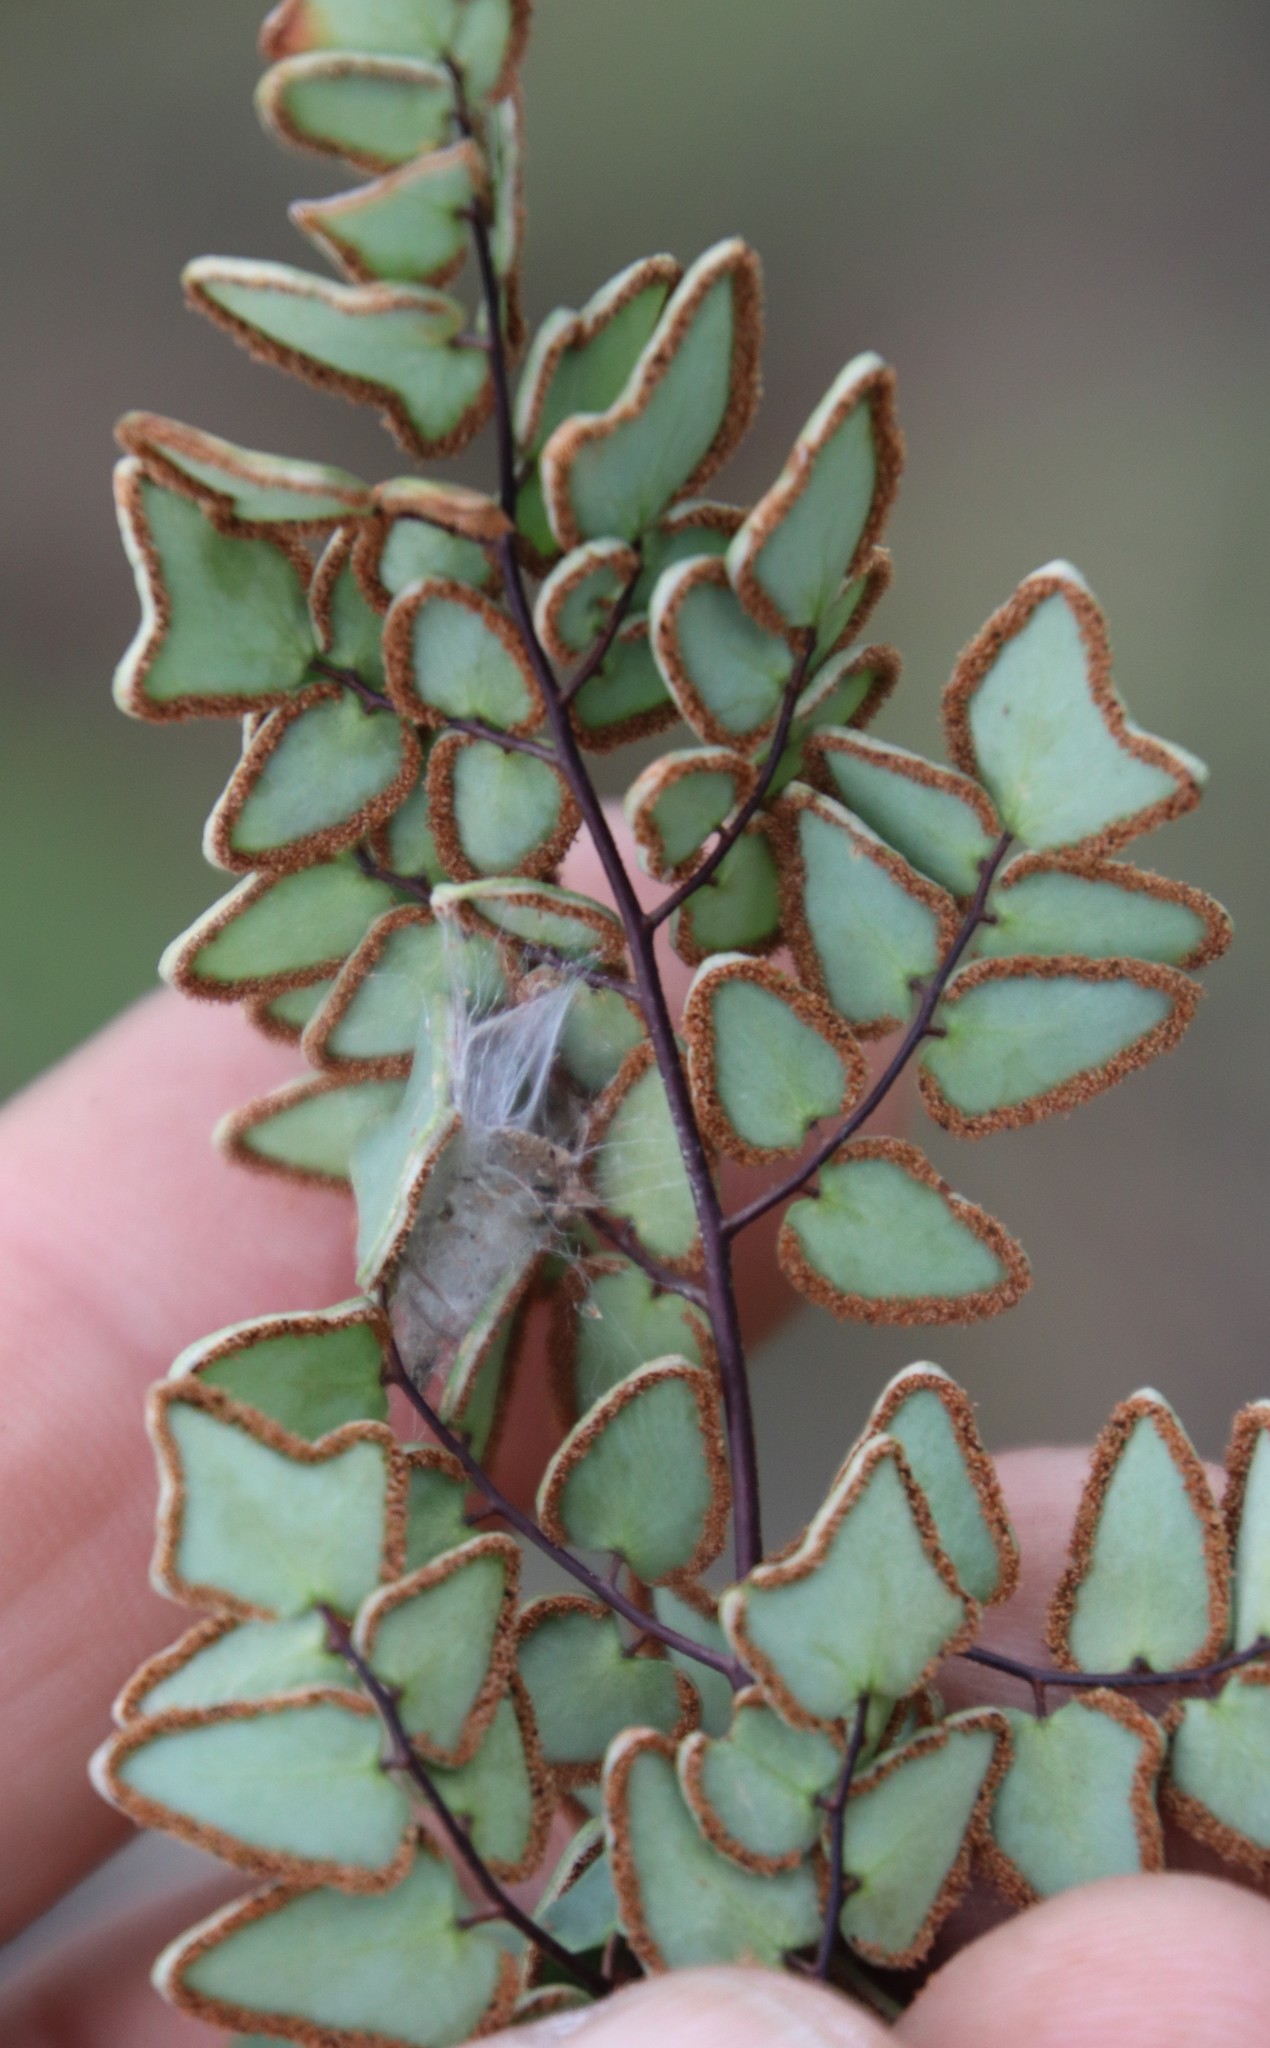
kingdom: Plantae
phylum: Tracheophyta
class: Polypodiopsida
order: Polypodiales
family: Pteridaceae
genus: Pellaea
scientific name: Pellaea calomelanos
